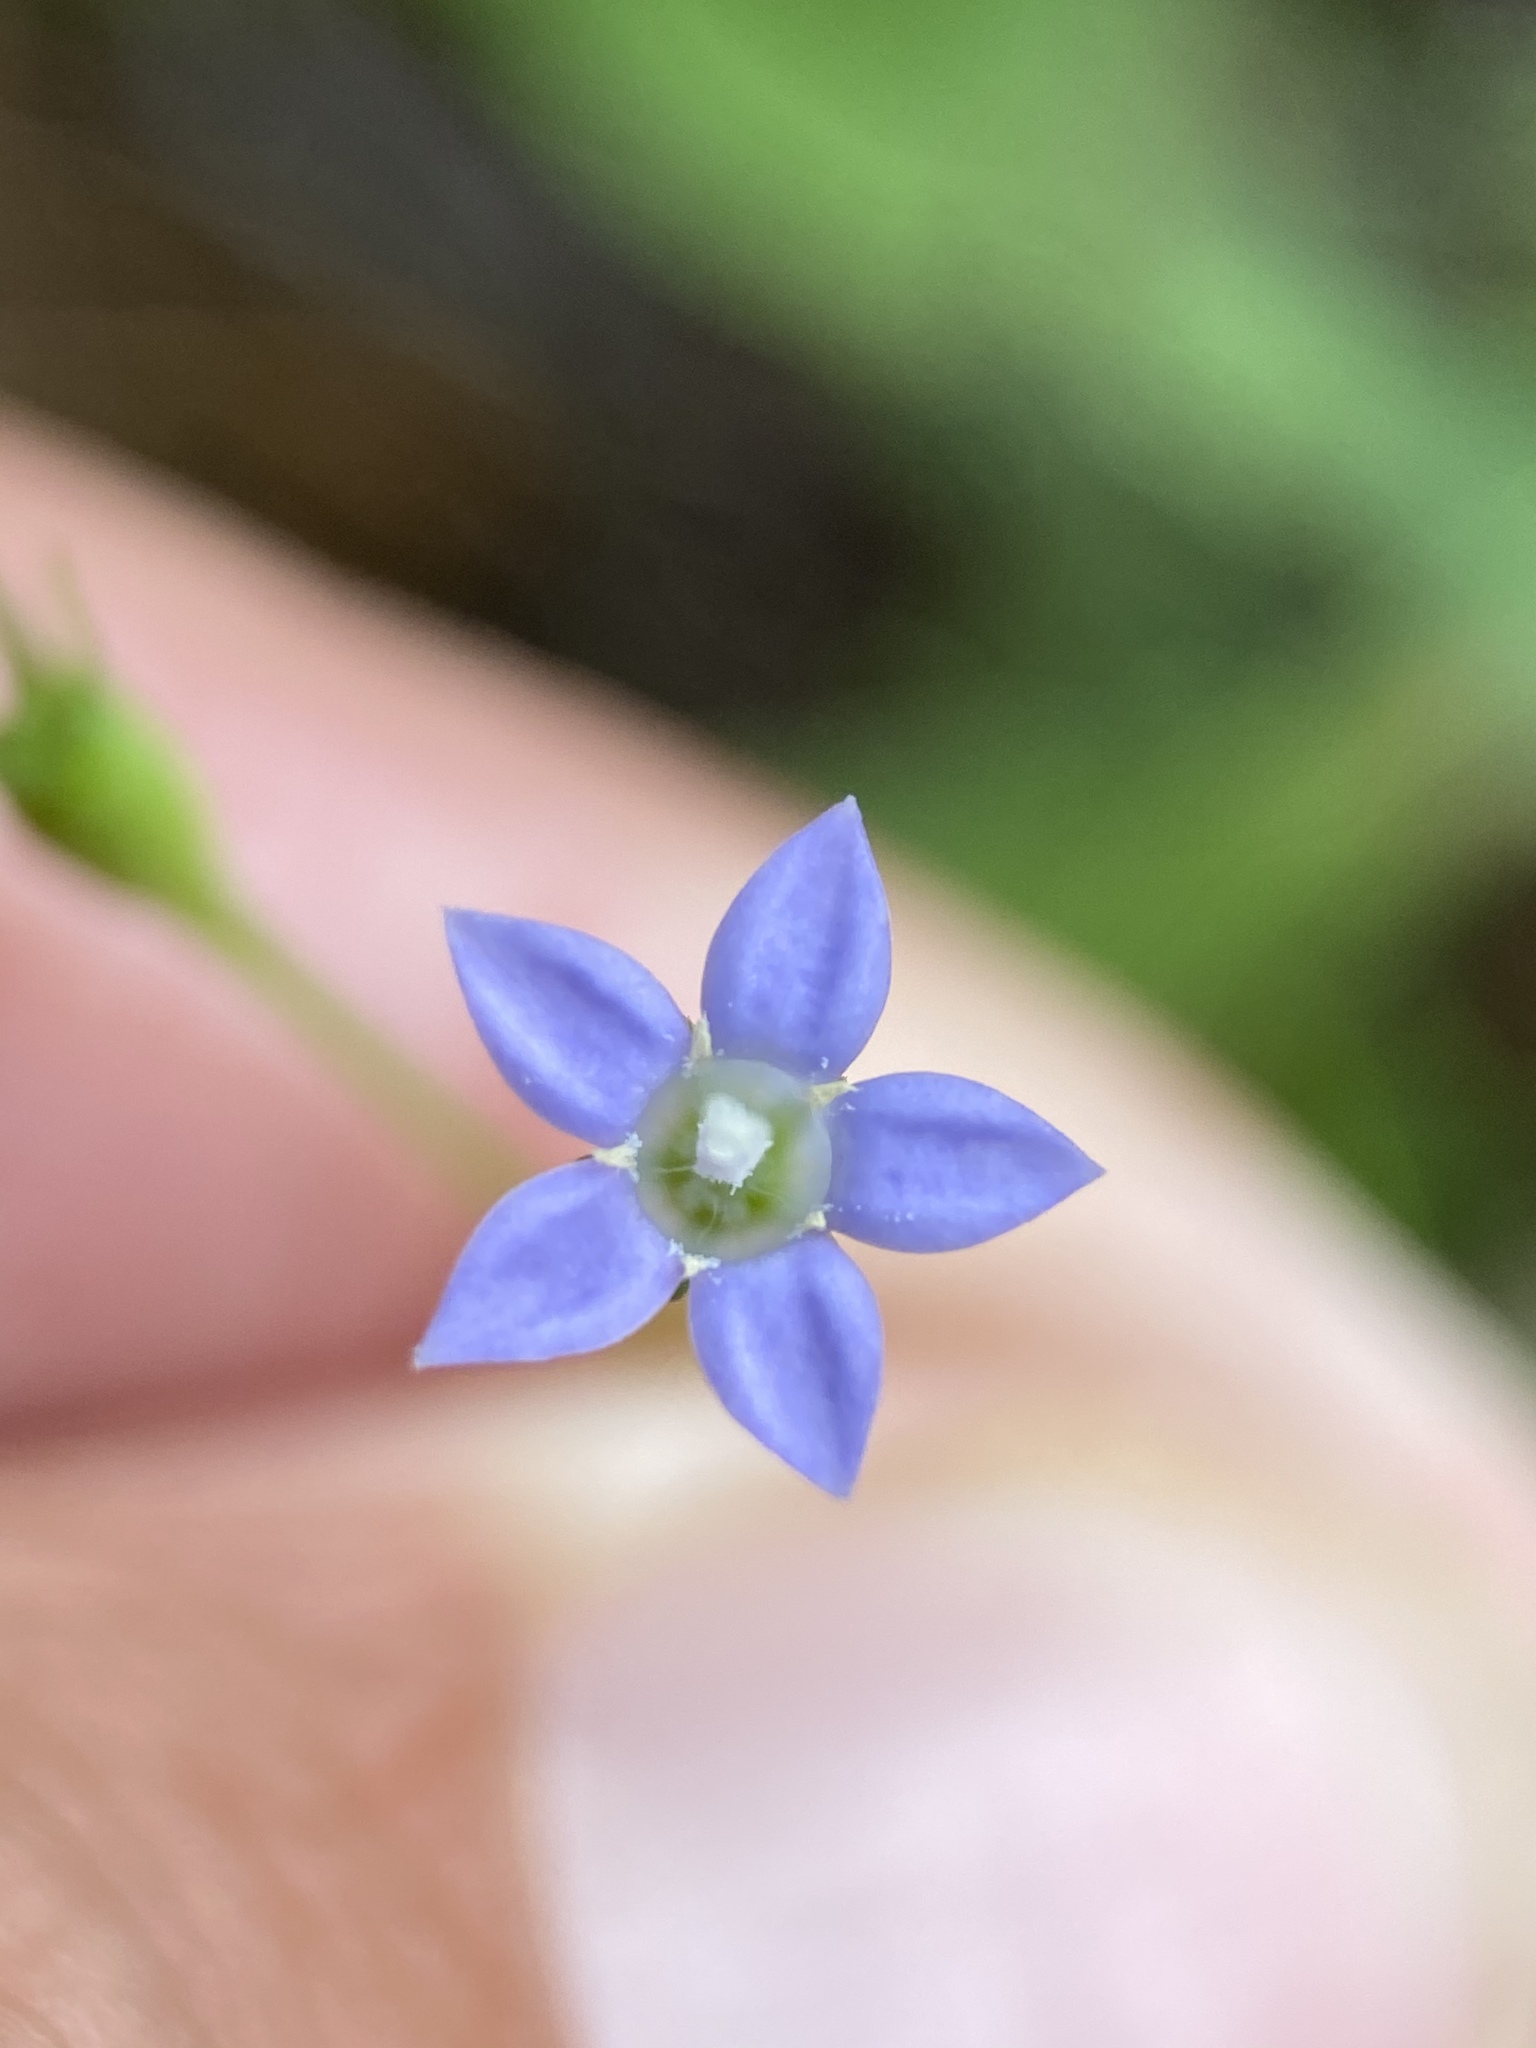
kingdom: Plantae
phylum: Tracheophyta
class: Magnoliopsida
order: Asterales
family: Campanulaceae
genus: Wahlenbergia
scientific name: Wahlenbergia marginata
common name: Southern rockbell
